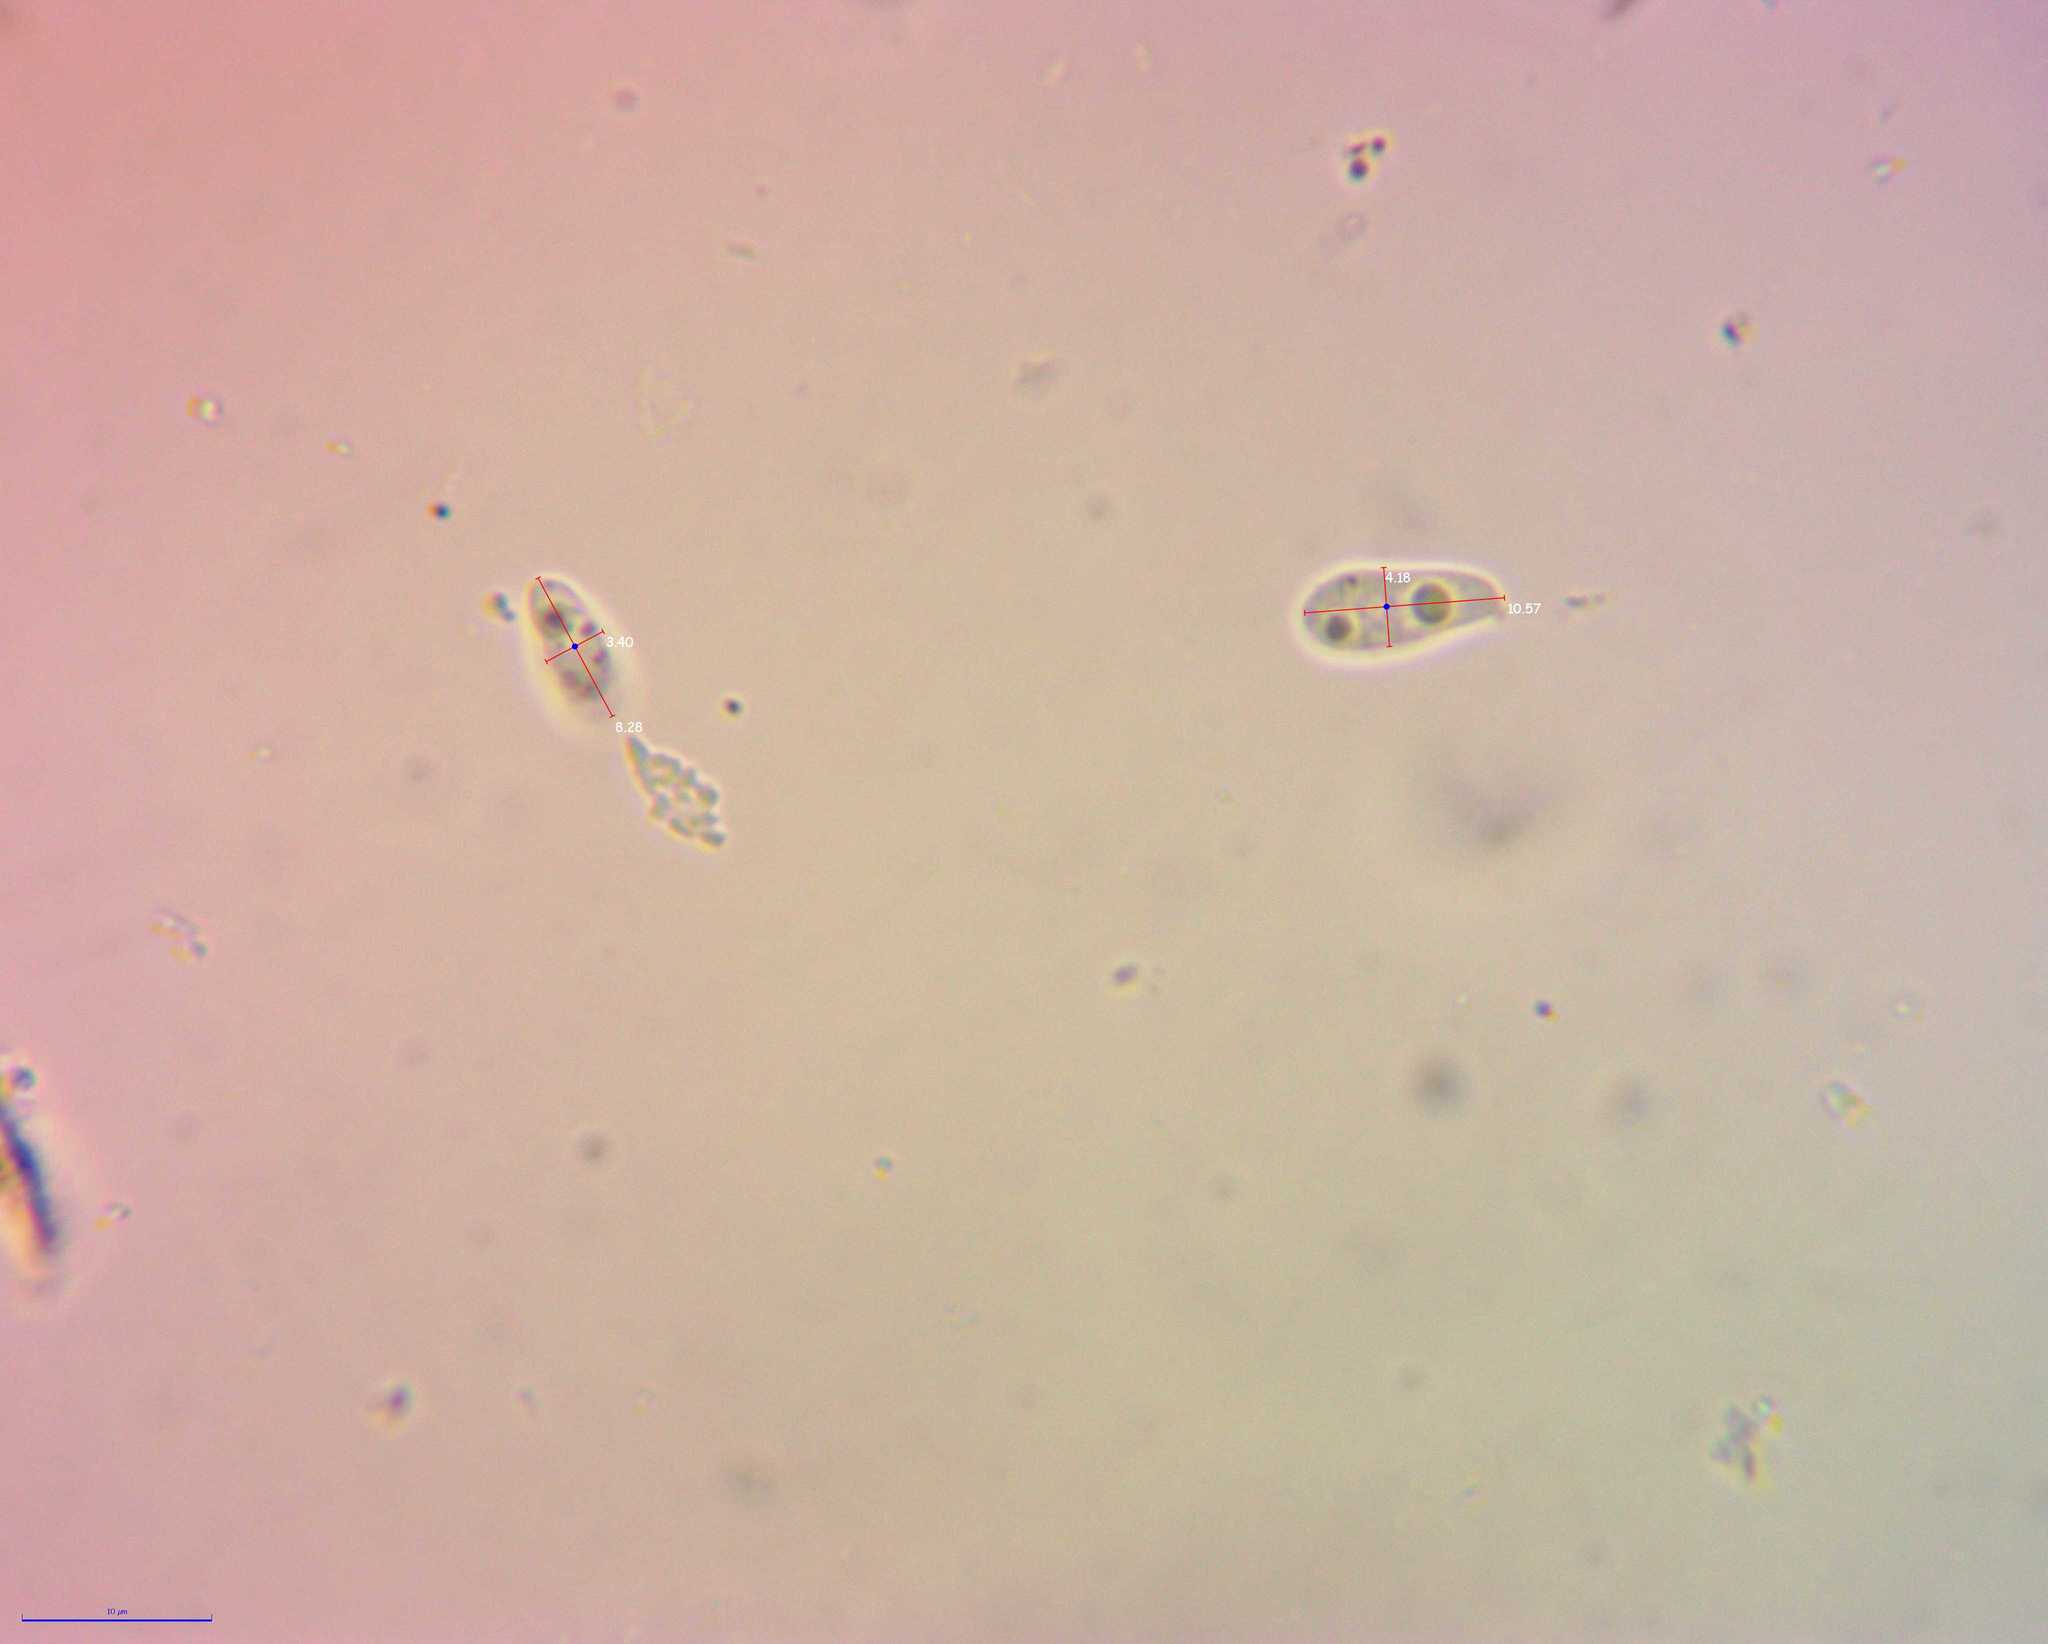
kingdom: Fungi
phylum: Basidiomycota
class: Agaricomycetes
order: Polyporales
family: Polyporaceae
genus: Neofavolus
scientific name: Neofavolus alveolaris
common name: Hexagonal-pored polypore
